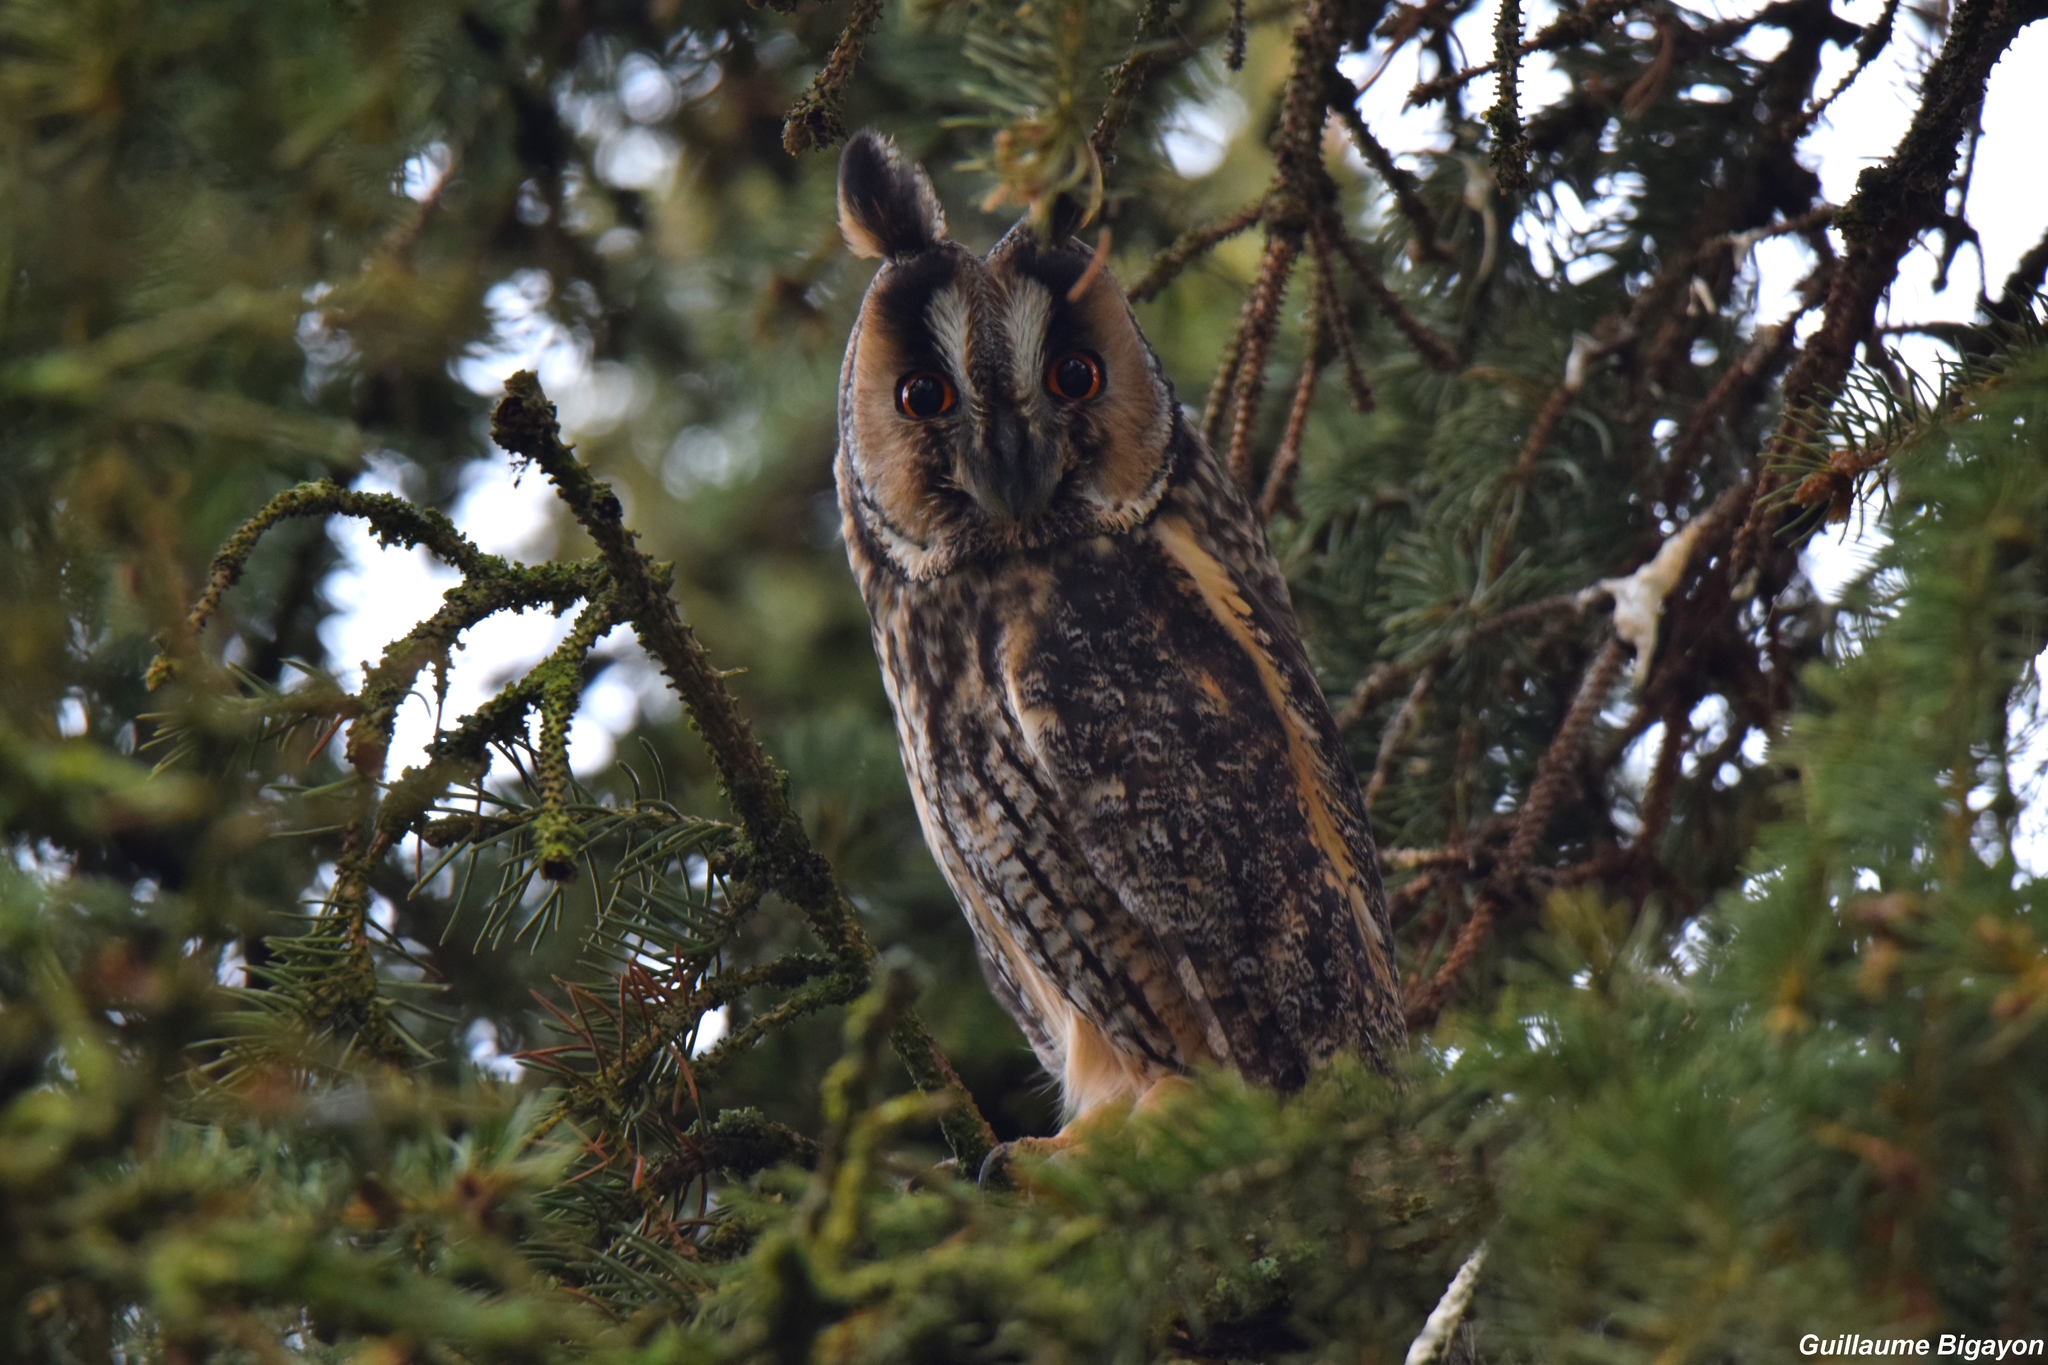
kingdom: Animalia
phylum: Chordata
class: Aves
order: Strigiformes
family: Strigidae
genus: Asio
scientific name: Asio otus
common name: Long-eared owl
